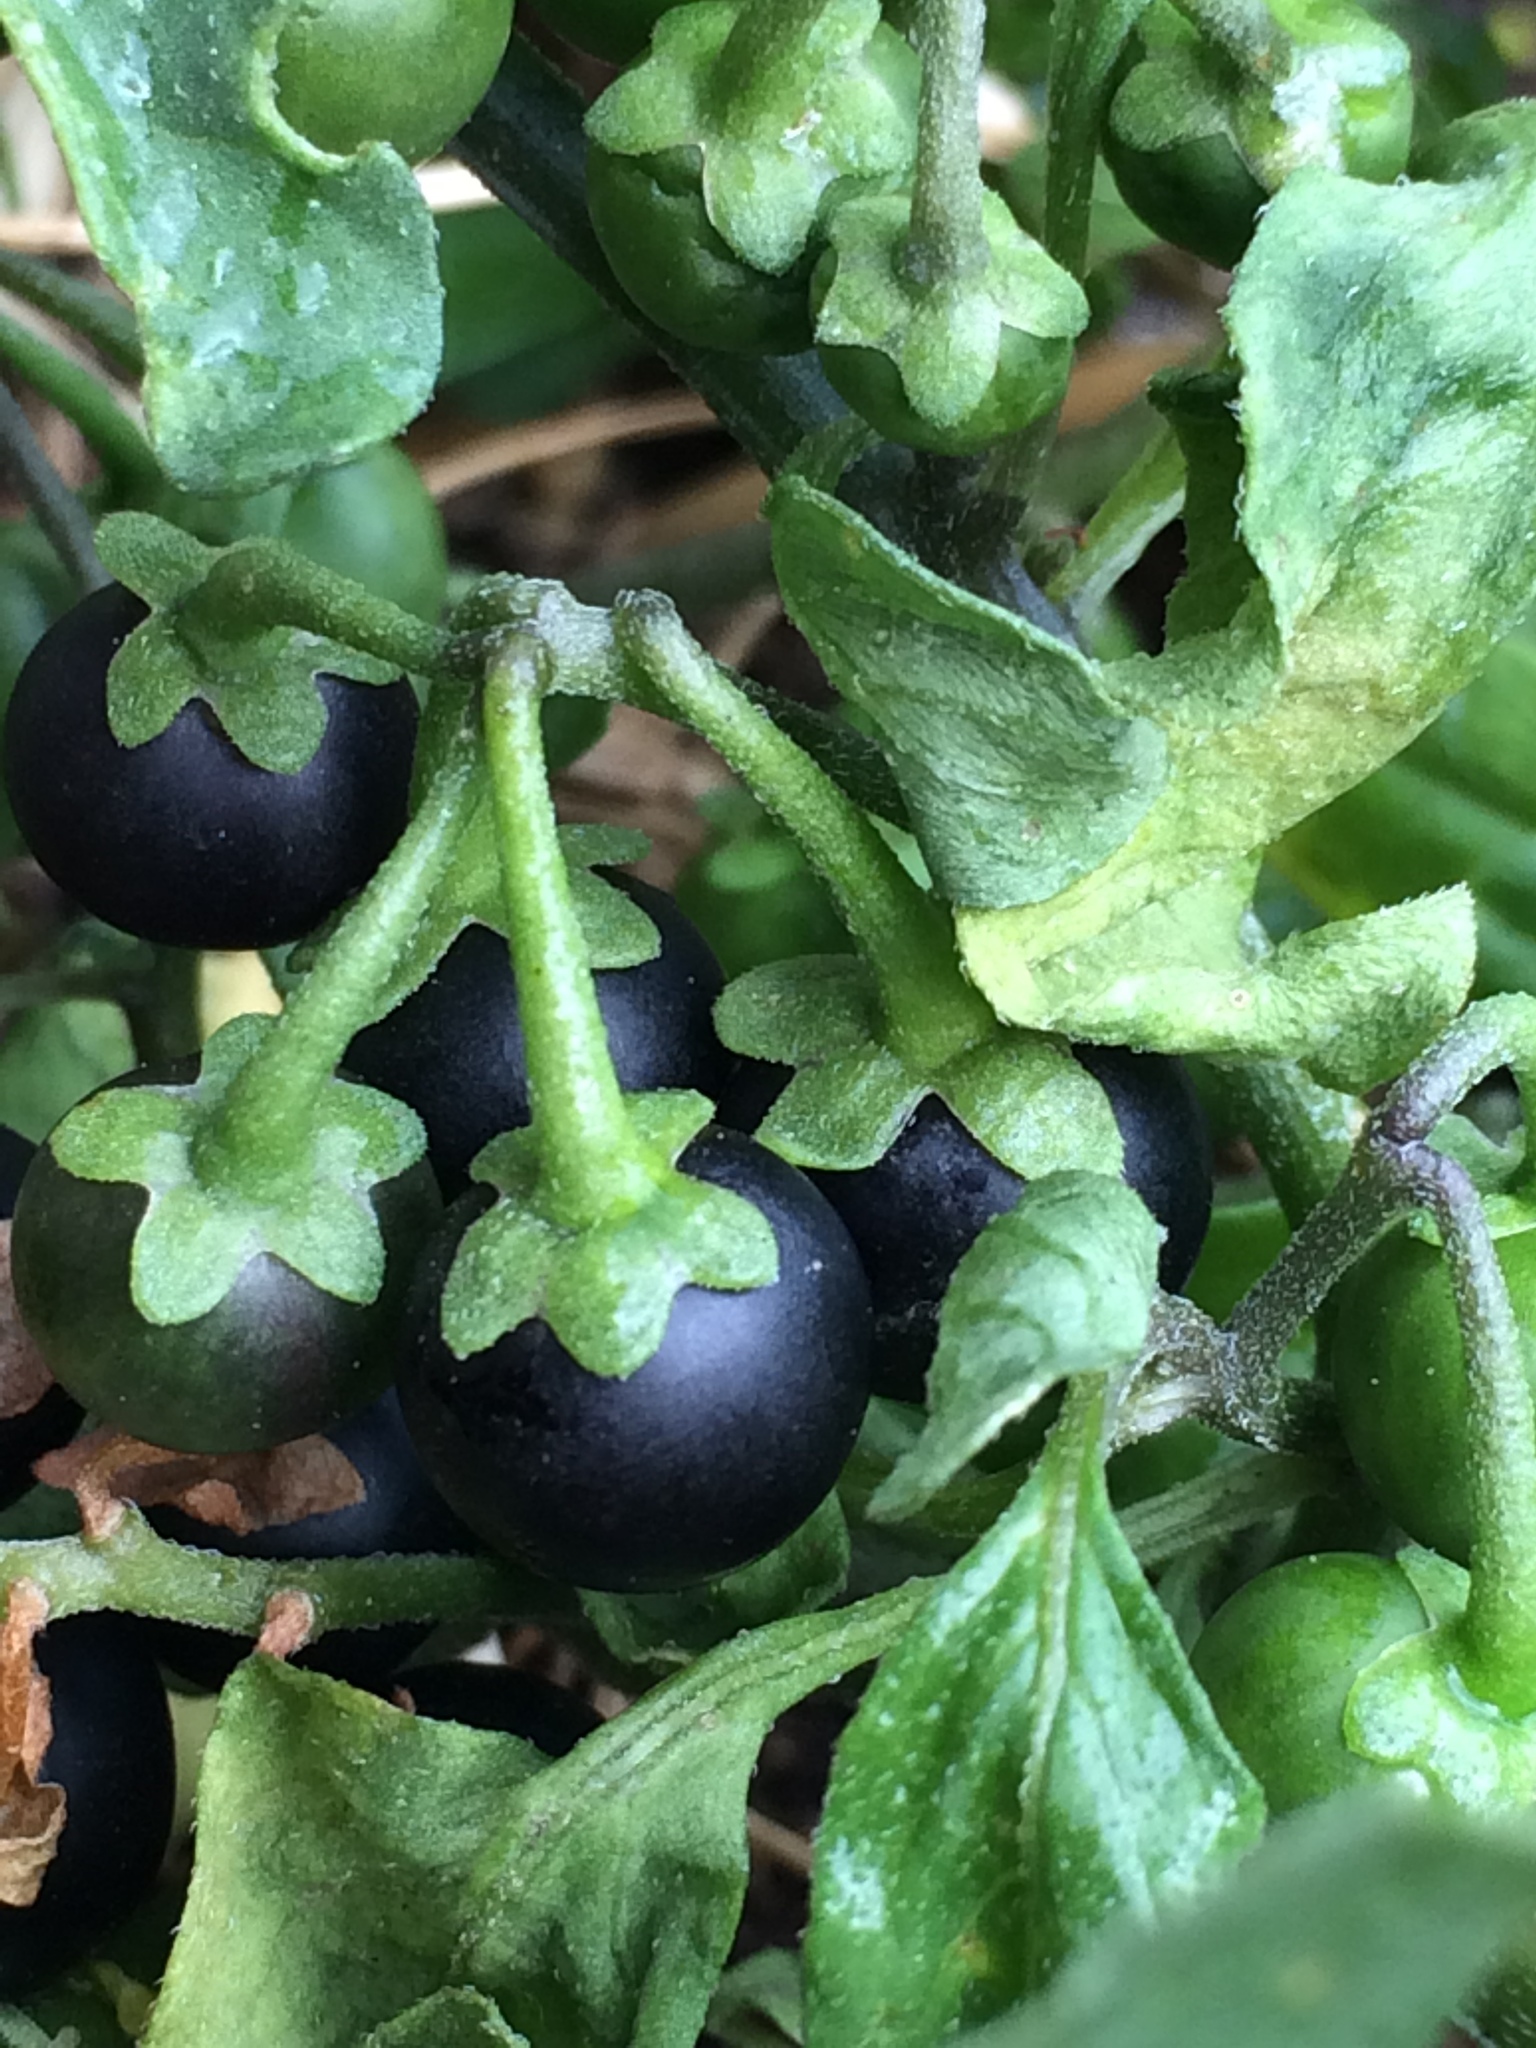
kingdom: Plantae
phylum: Tracheophyta
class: Magnoliopsida
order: Solanales
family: Solanaceae
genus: Solanum
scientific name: Solanum nigrum
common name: Black nightshade
